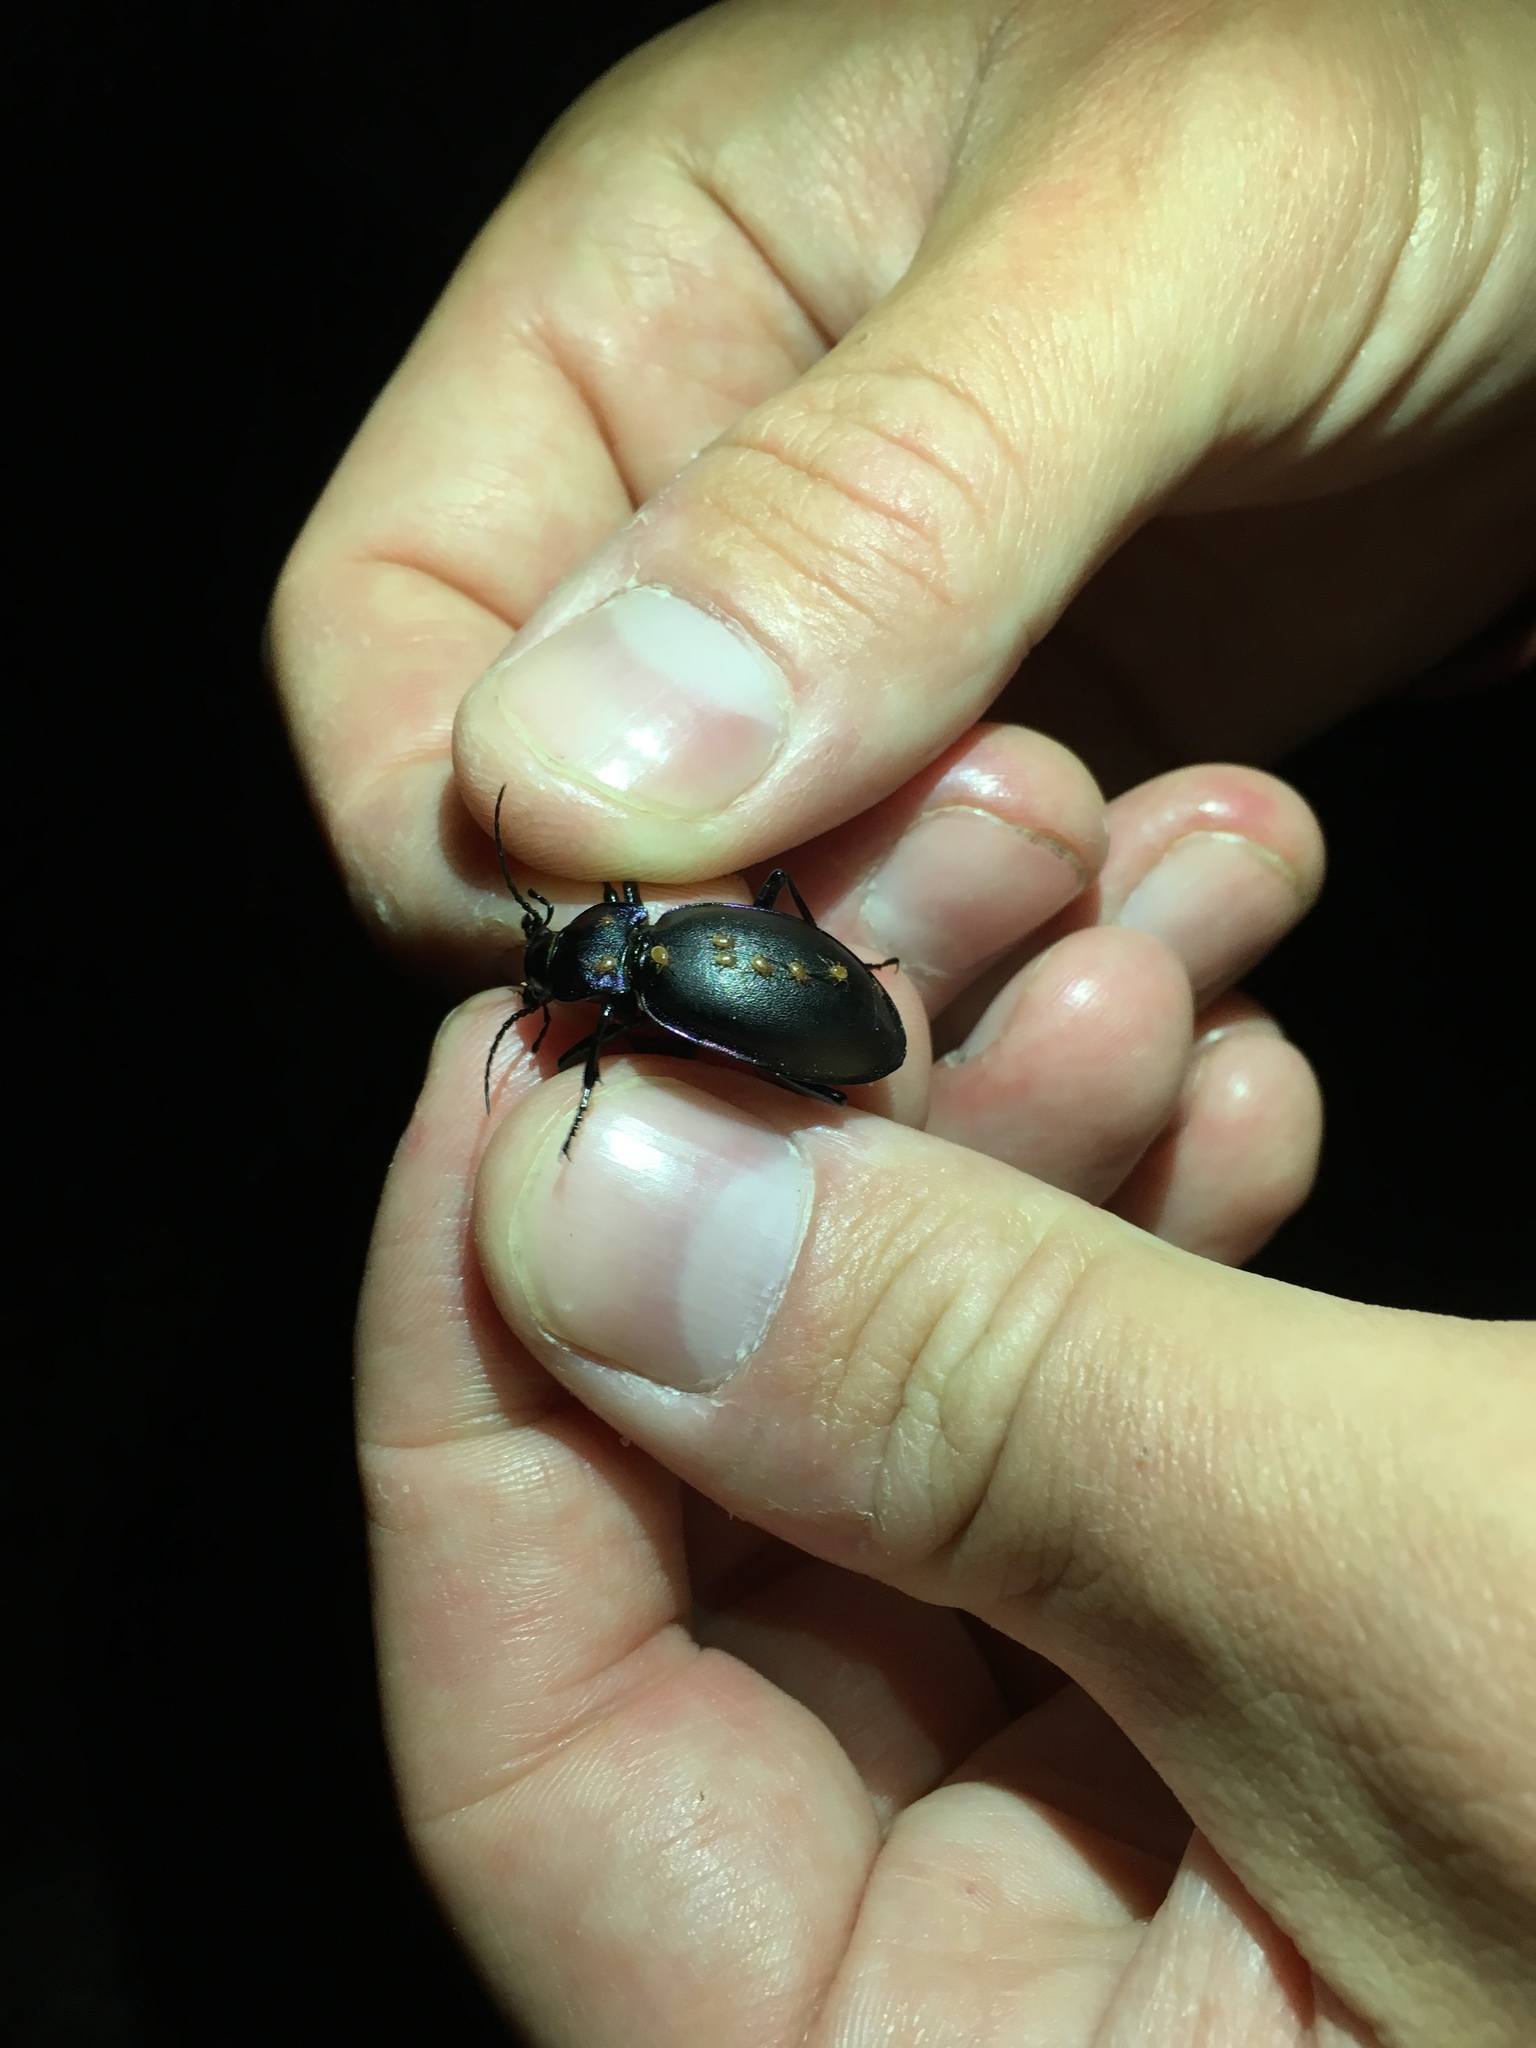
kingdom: Animalia
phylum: Arthropoda
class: Insecta
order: Coleoptera
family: Carabidae
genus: Carabus
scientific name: Carabus violaceus
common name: Violet ground beetle
